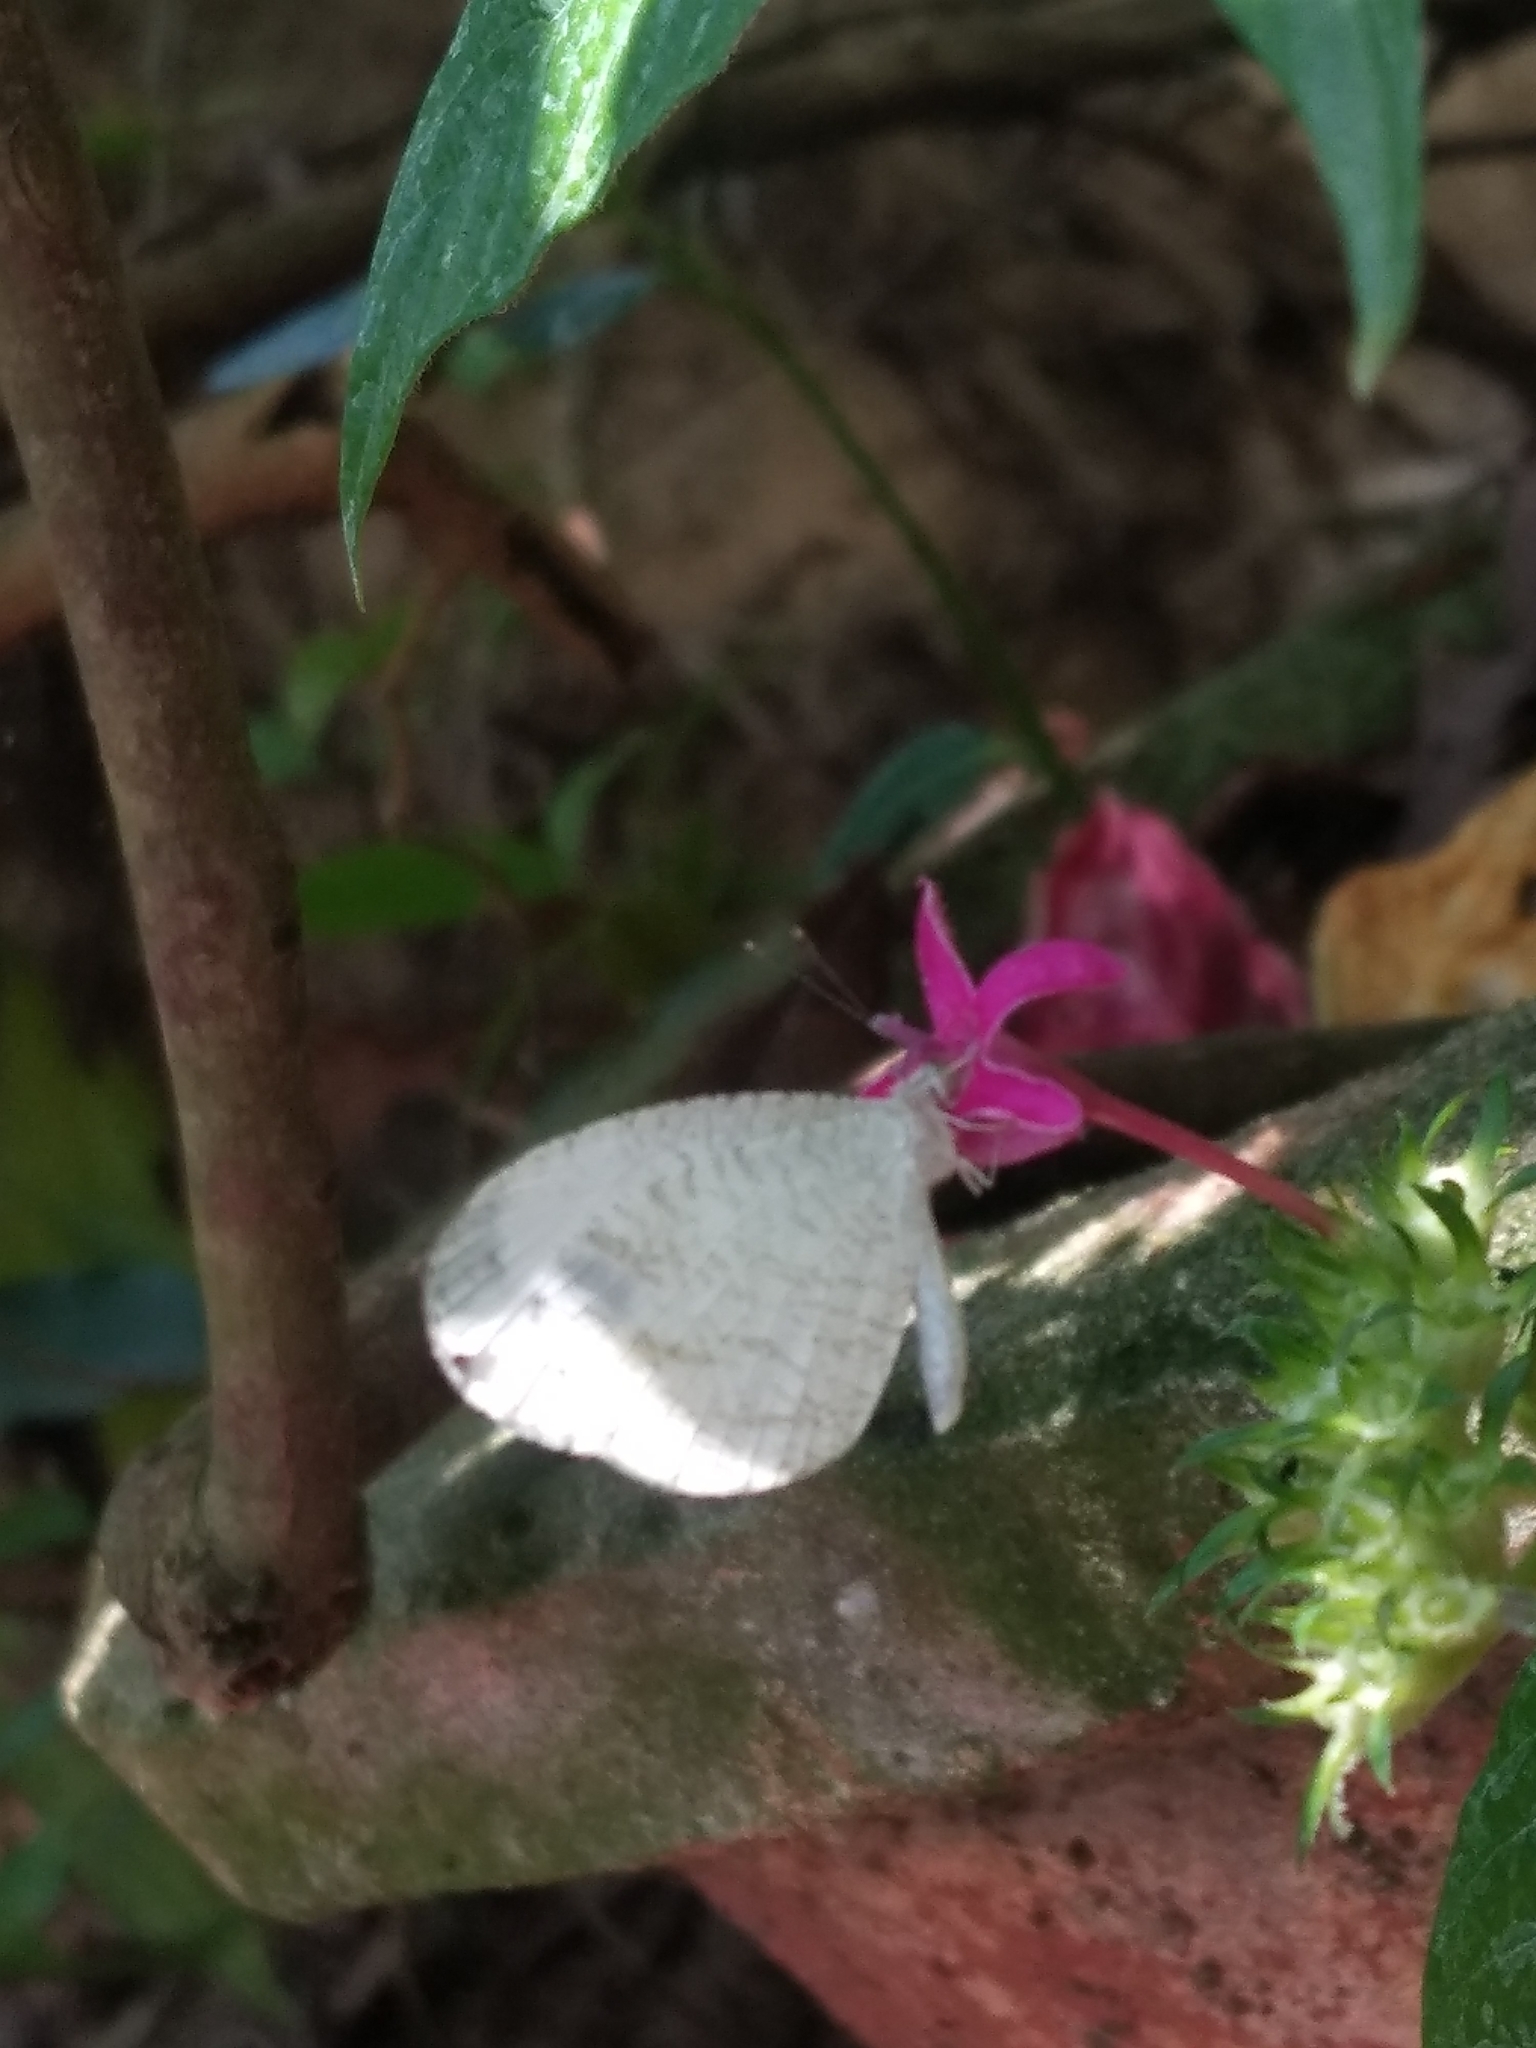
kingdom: Animalia
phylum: Arthropoda
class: Insecta
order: Lepidoptera
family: Pieridae
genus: Leptosia
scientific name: Leptosia nina
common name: Psyche
